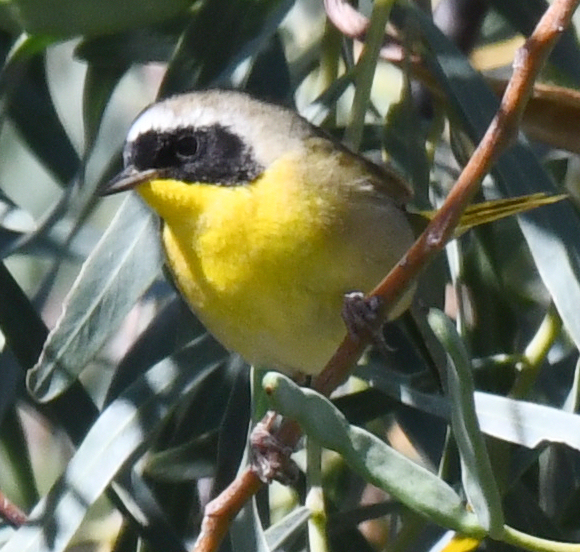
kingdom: Animalia
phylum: Chordata
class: Aves
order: Passeriformes
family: Parulidae
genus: Geothlypis
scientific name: Geothlypis trichas
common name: Common yellowthroat
